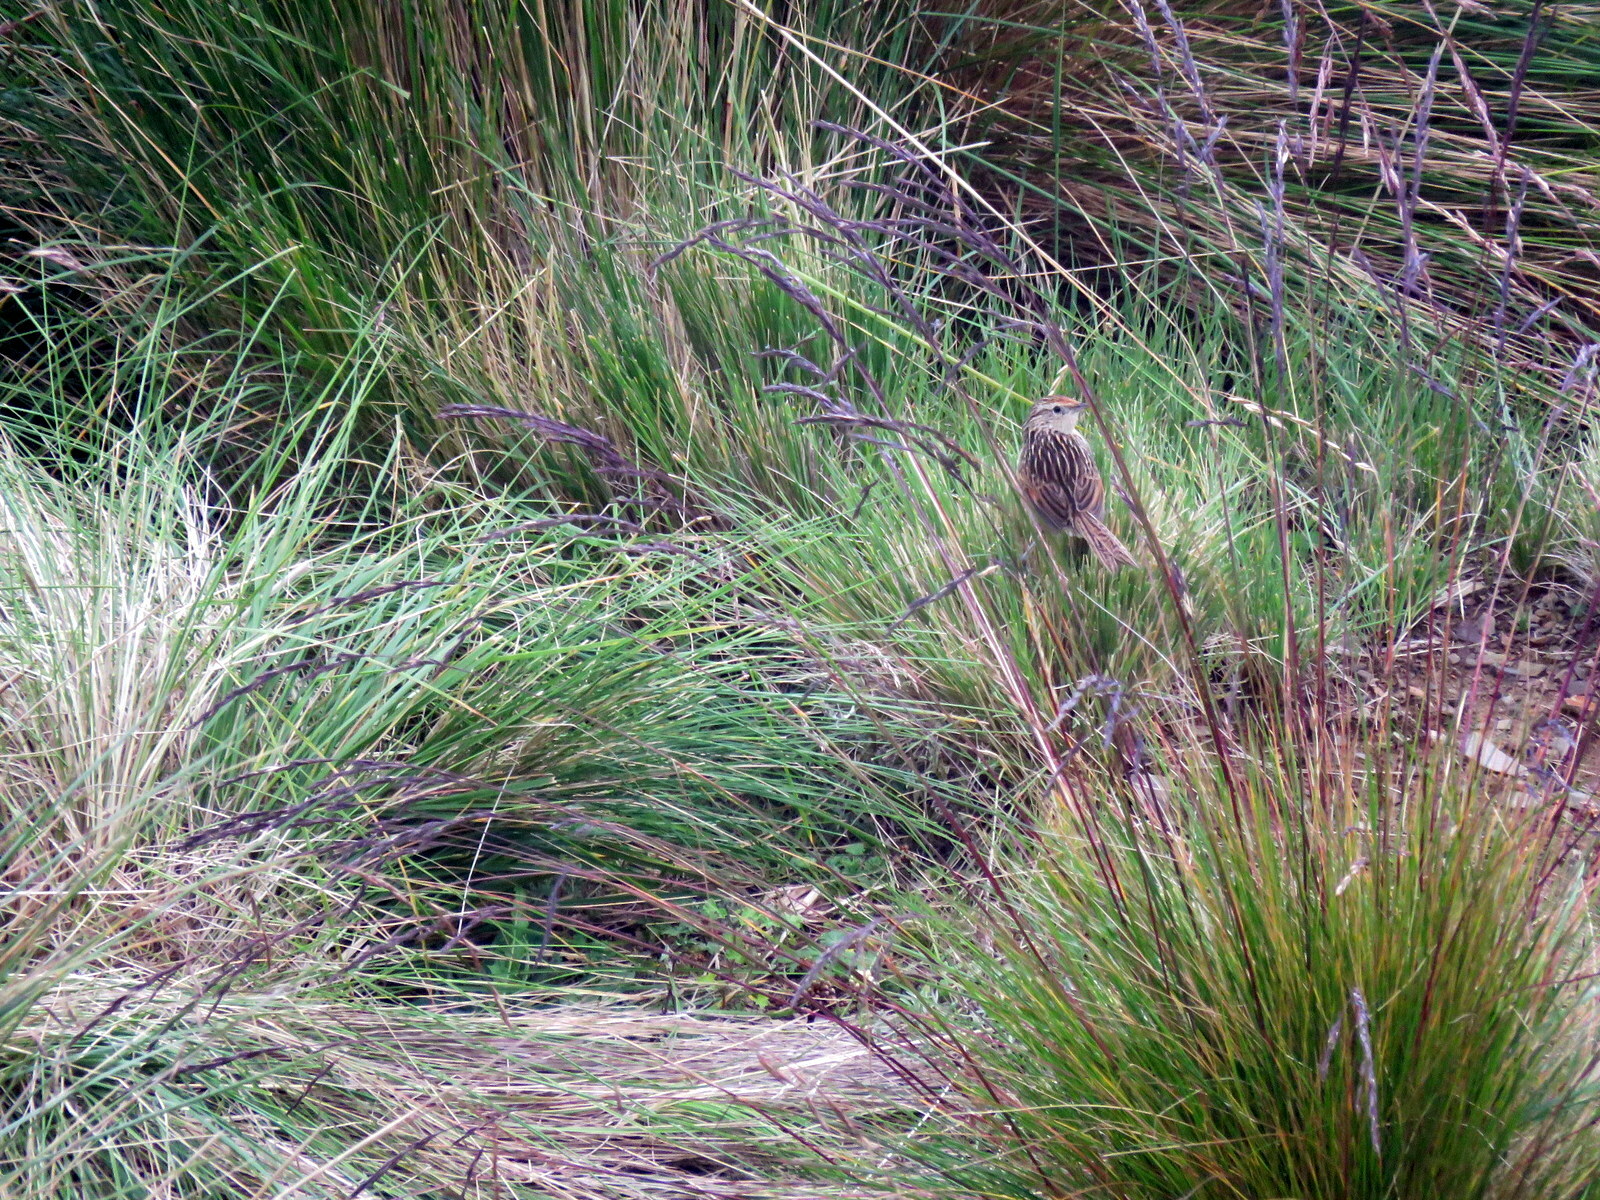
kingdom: Animalia
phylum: Chordata
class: Aves
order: Passeriformes
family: Furnariidae
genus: Asthenes
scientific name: Asthenes maculicauda
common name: Scribble-tailed canastero
